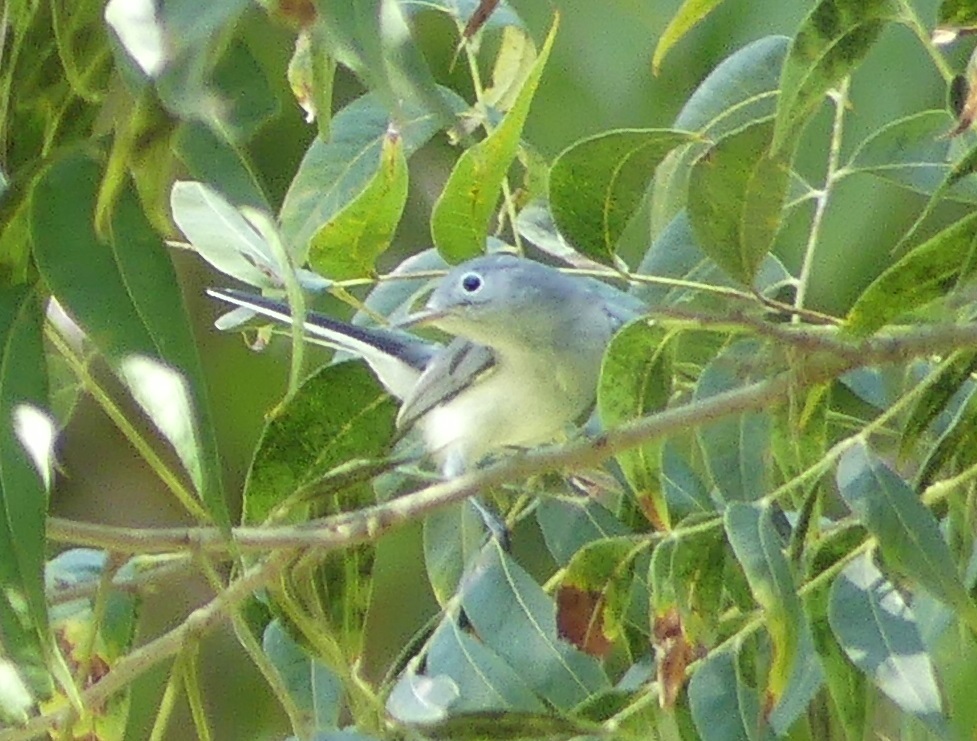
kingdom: Animalia
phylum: Chordata
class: Aves
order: Passeriformes
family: Polioptilidae
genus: Polioptila
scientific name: Polioptila caerulea
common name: Blue-gray gnatcatcher
